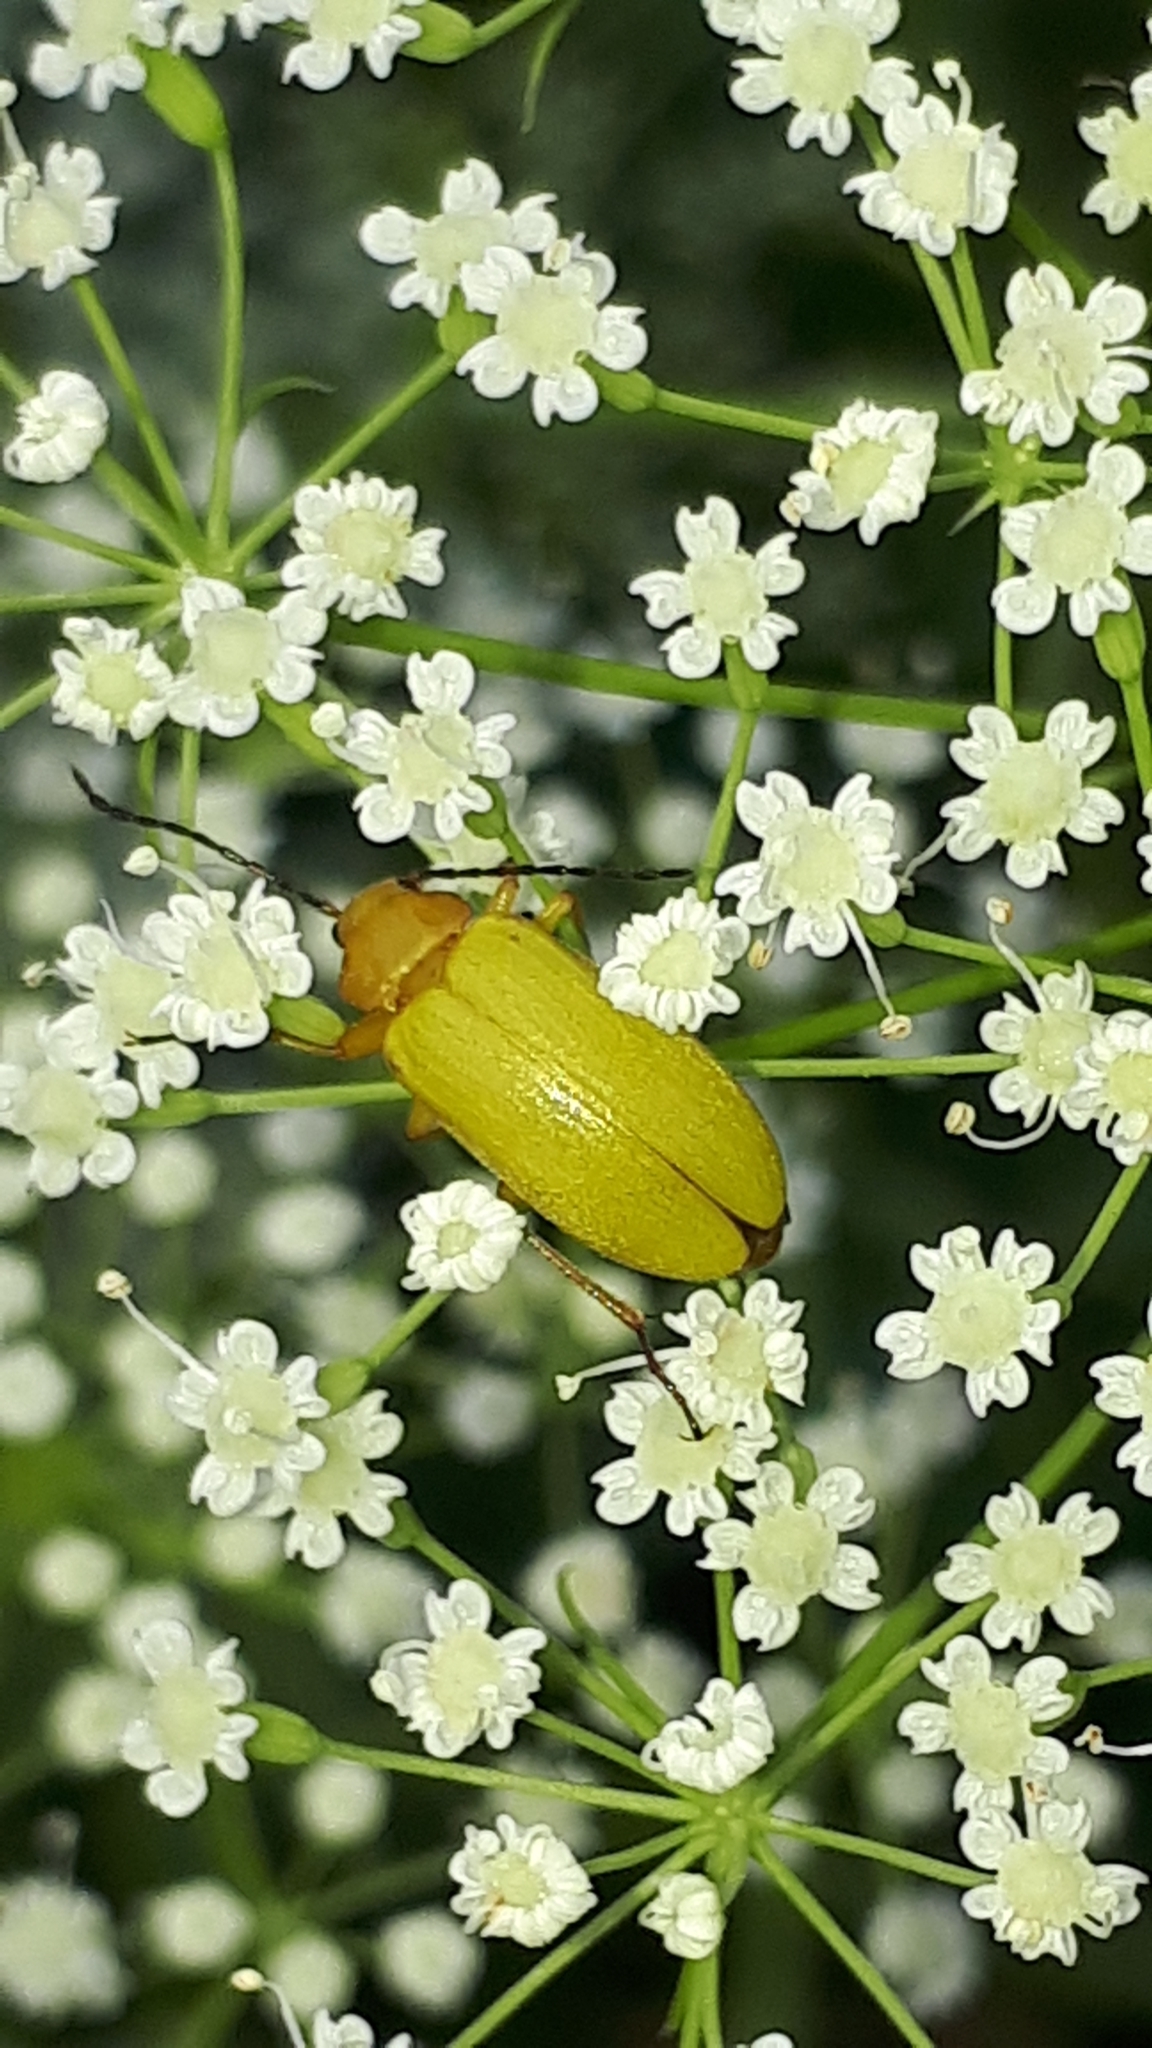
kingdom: Animalia
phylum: Arthropoda
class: Insecta
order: Coleoptera
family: Tenebrionidae
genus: Cteniopus
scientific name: Cteniopus sulphureus
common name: Sulphur beetle
